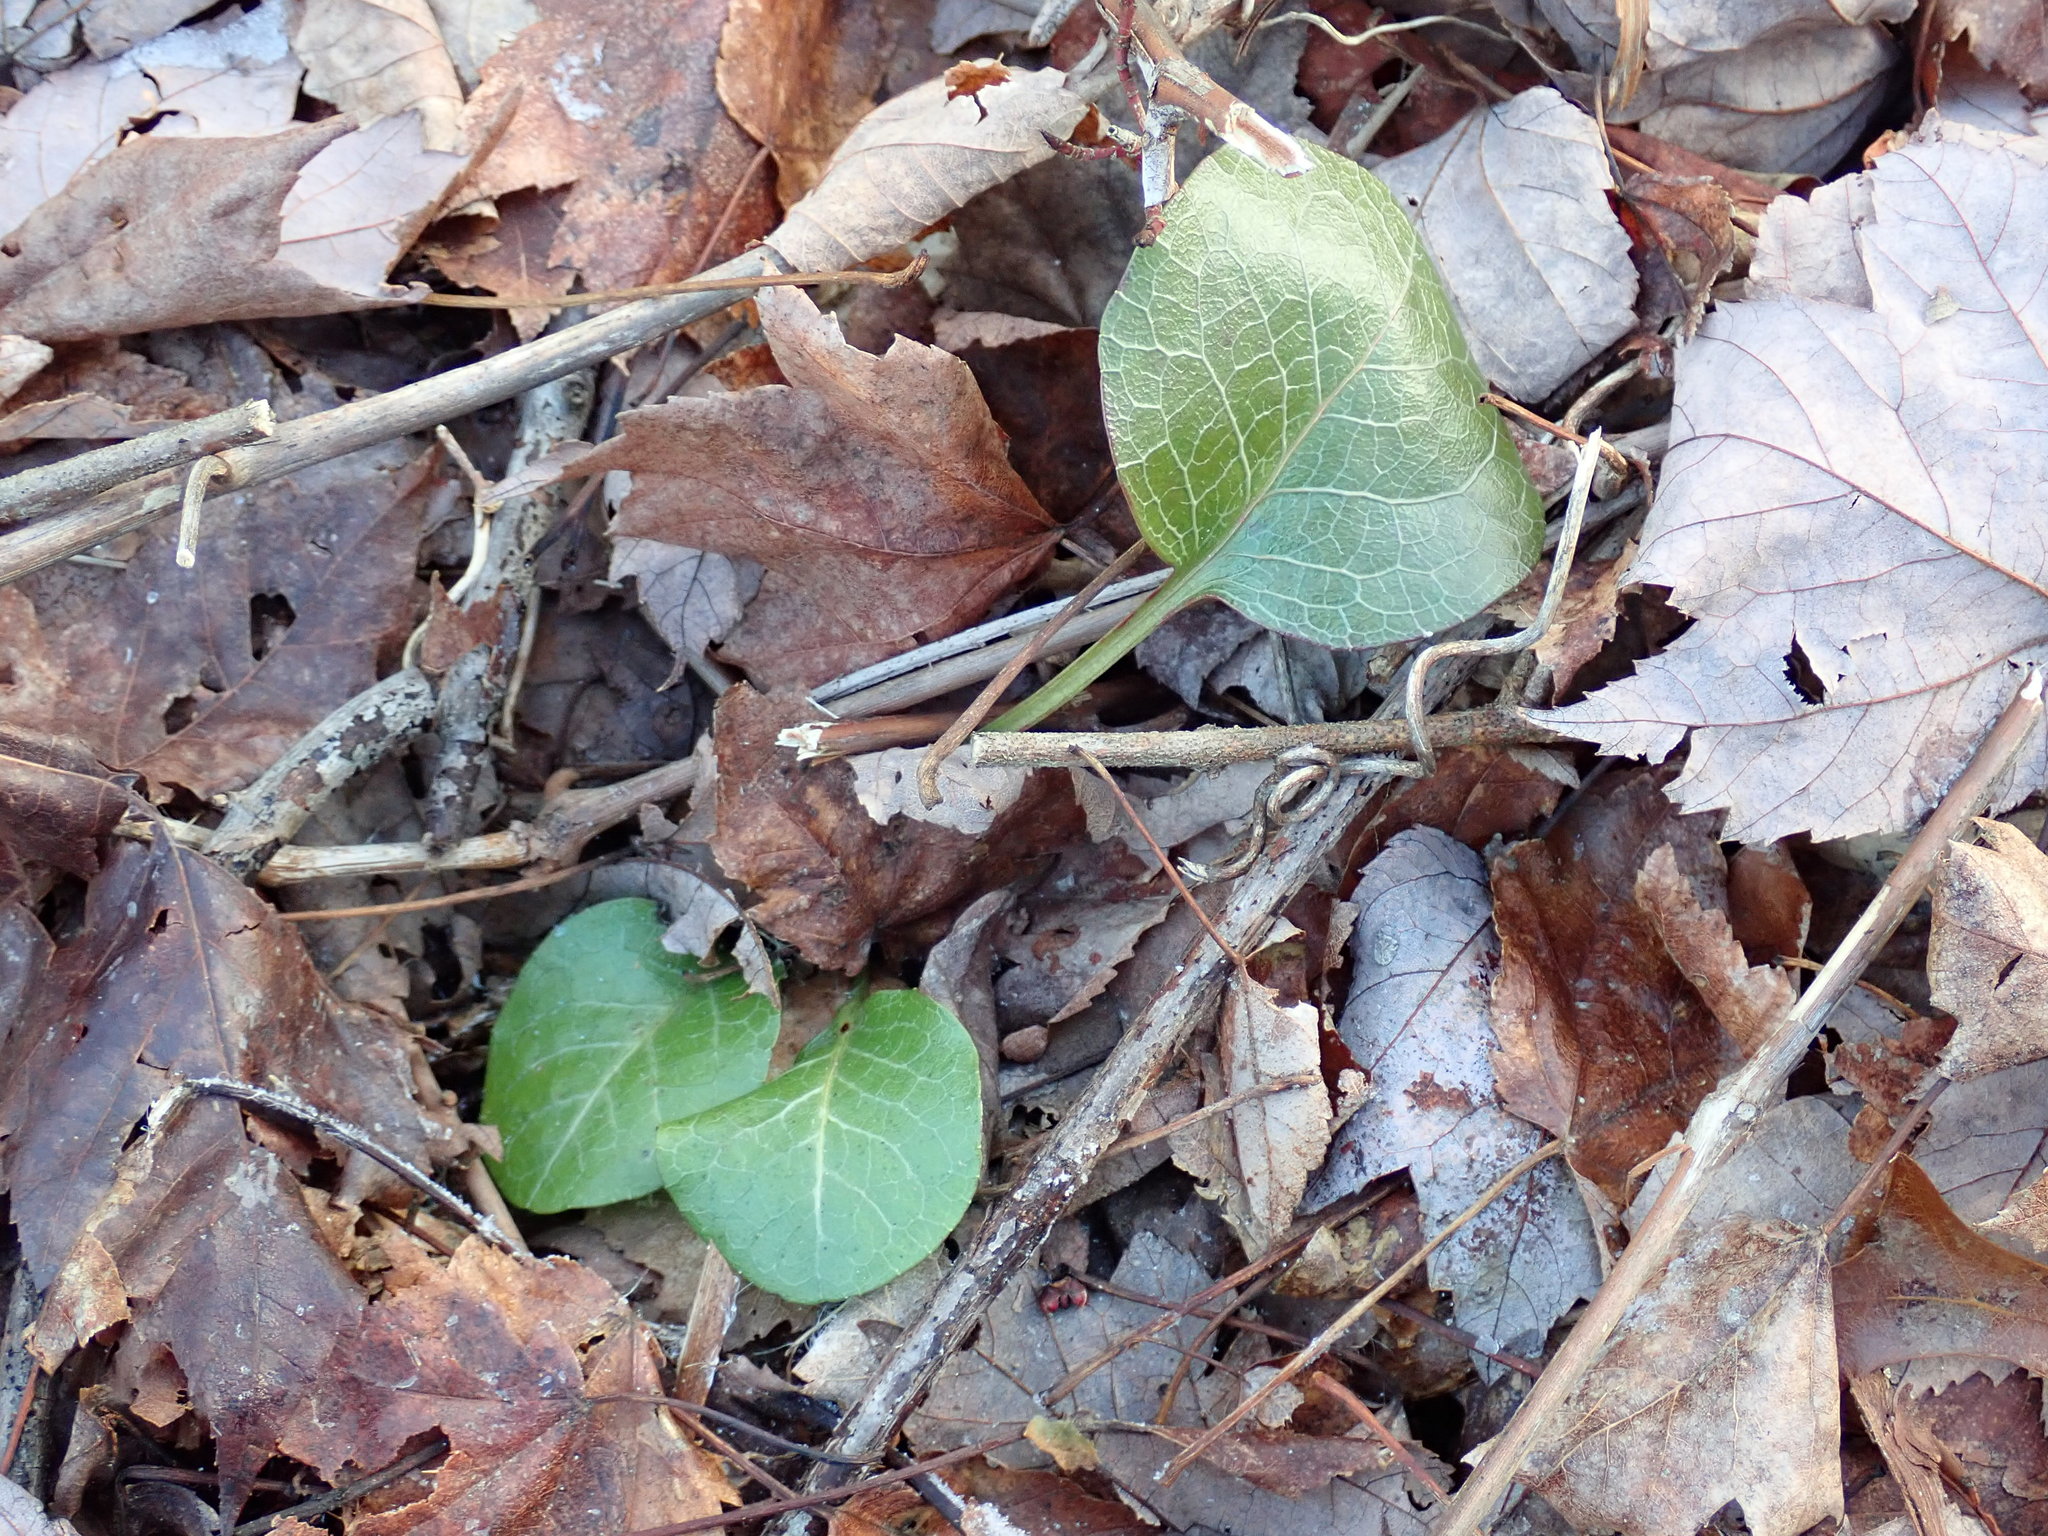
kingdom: Plantae
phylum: Tracheophyta
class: Magnoliopsida
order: Ericales
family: Ericaceae
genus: Pyrola
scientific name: Pyrola americana
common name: American wintergreen
